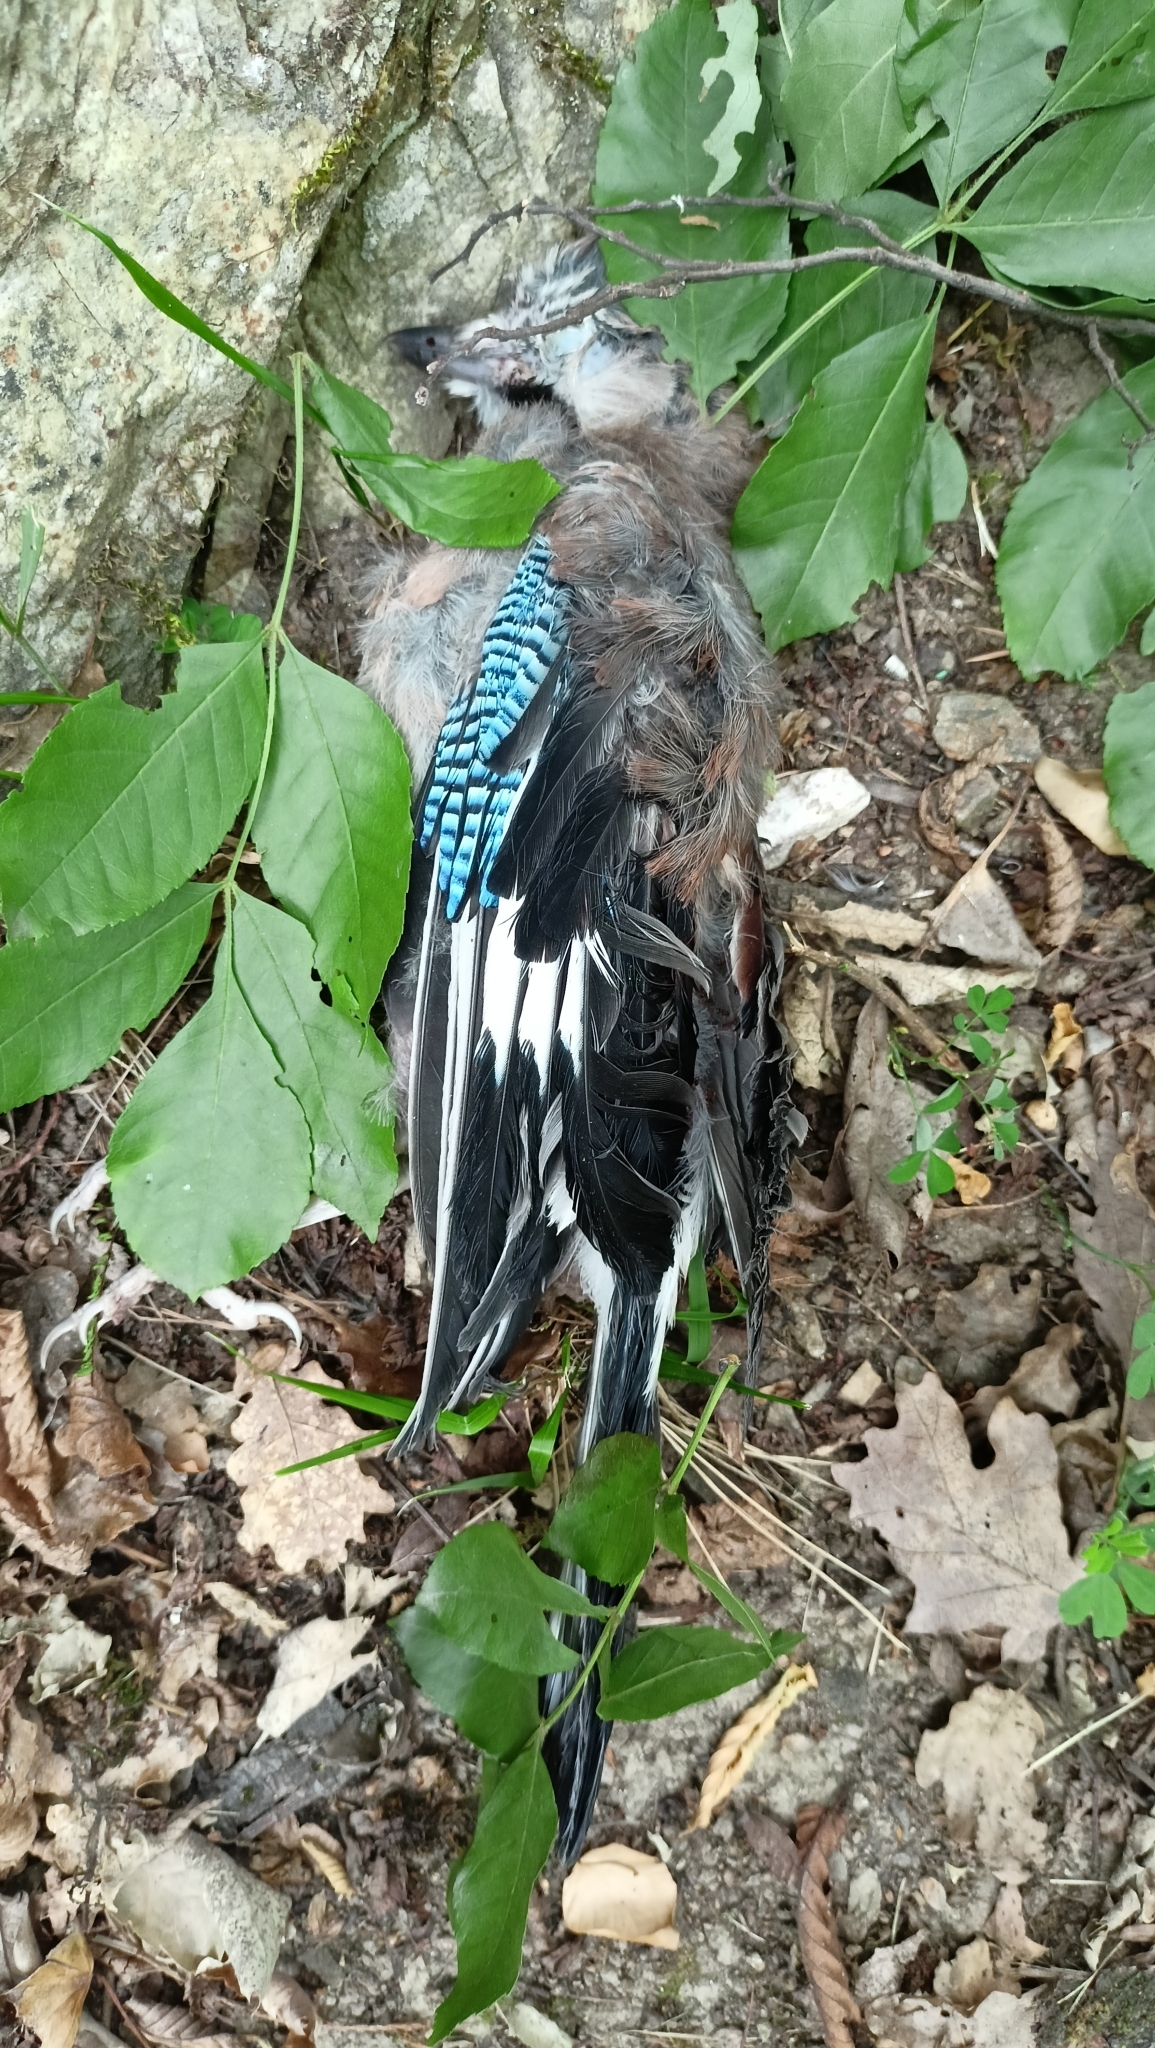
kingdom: Animalia
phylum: Chordata
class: Aves
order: Passeriformes
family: Corvidae
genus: Garrulus
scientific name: Garrulus glandarius
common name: Eurasian jay
